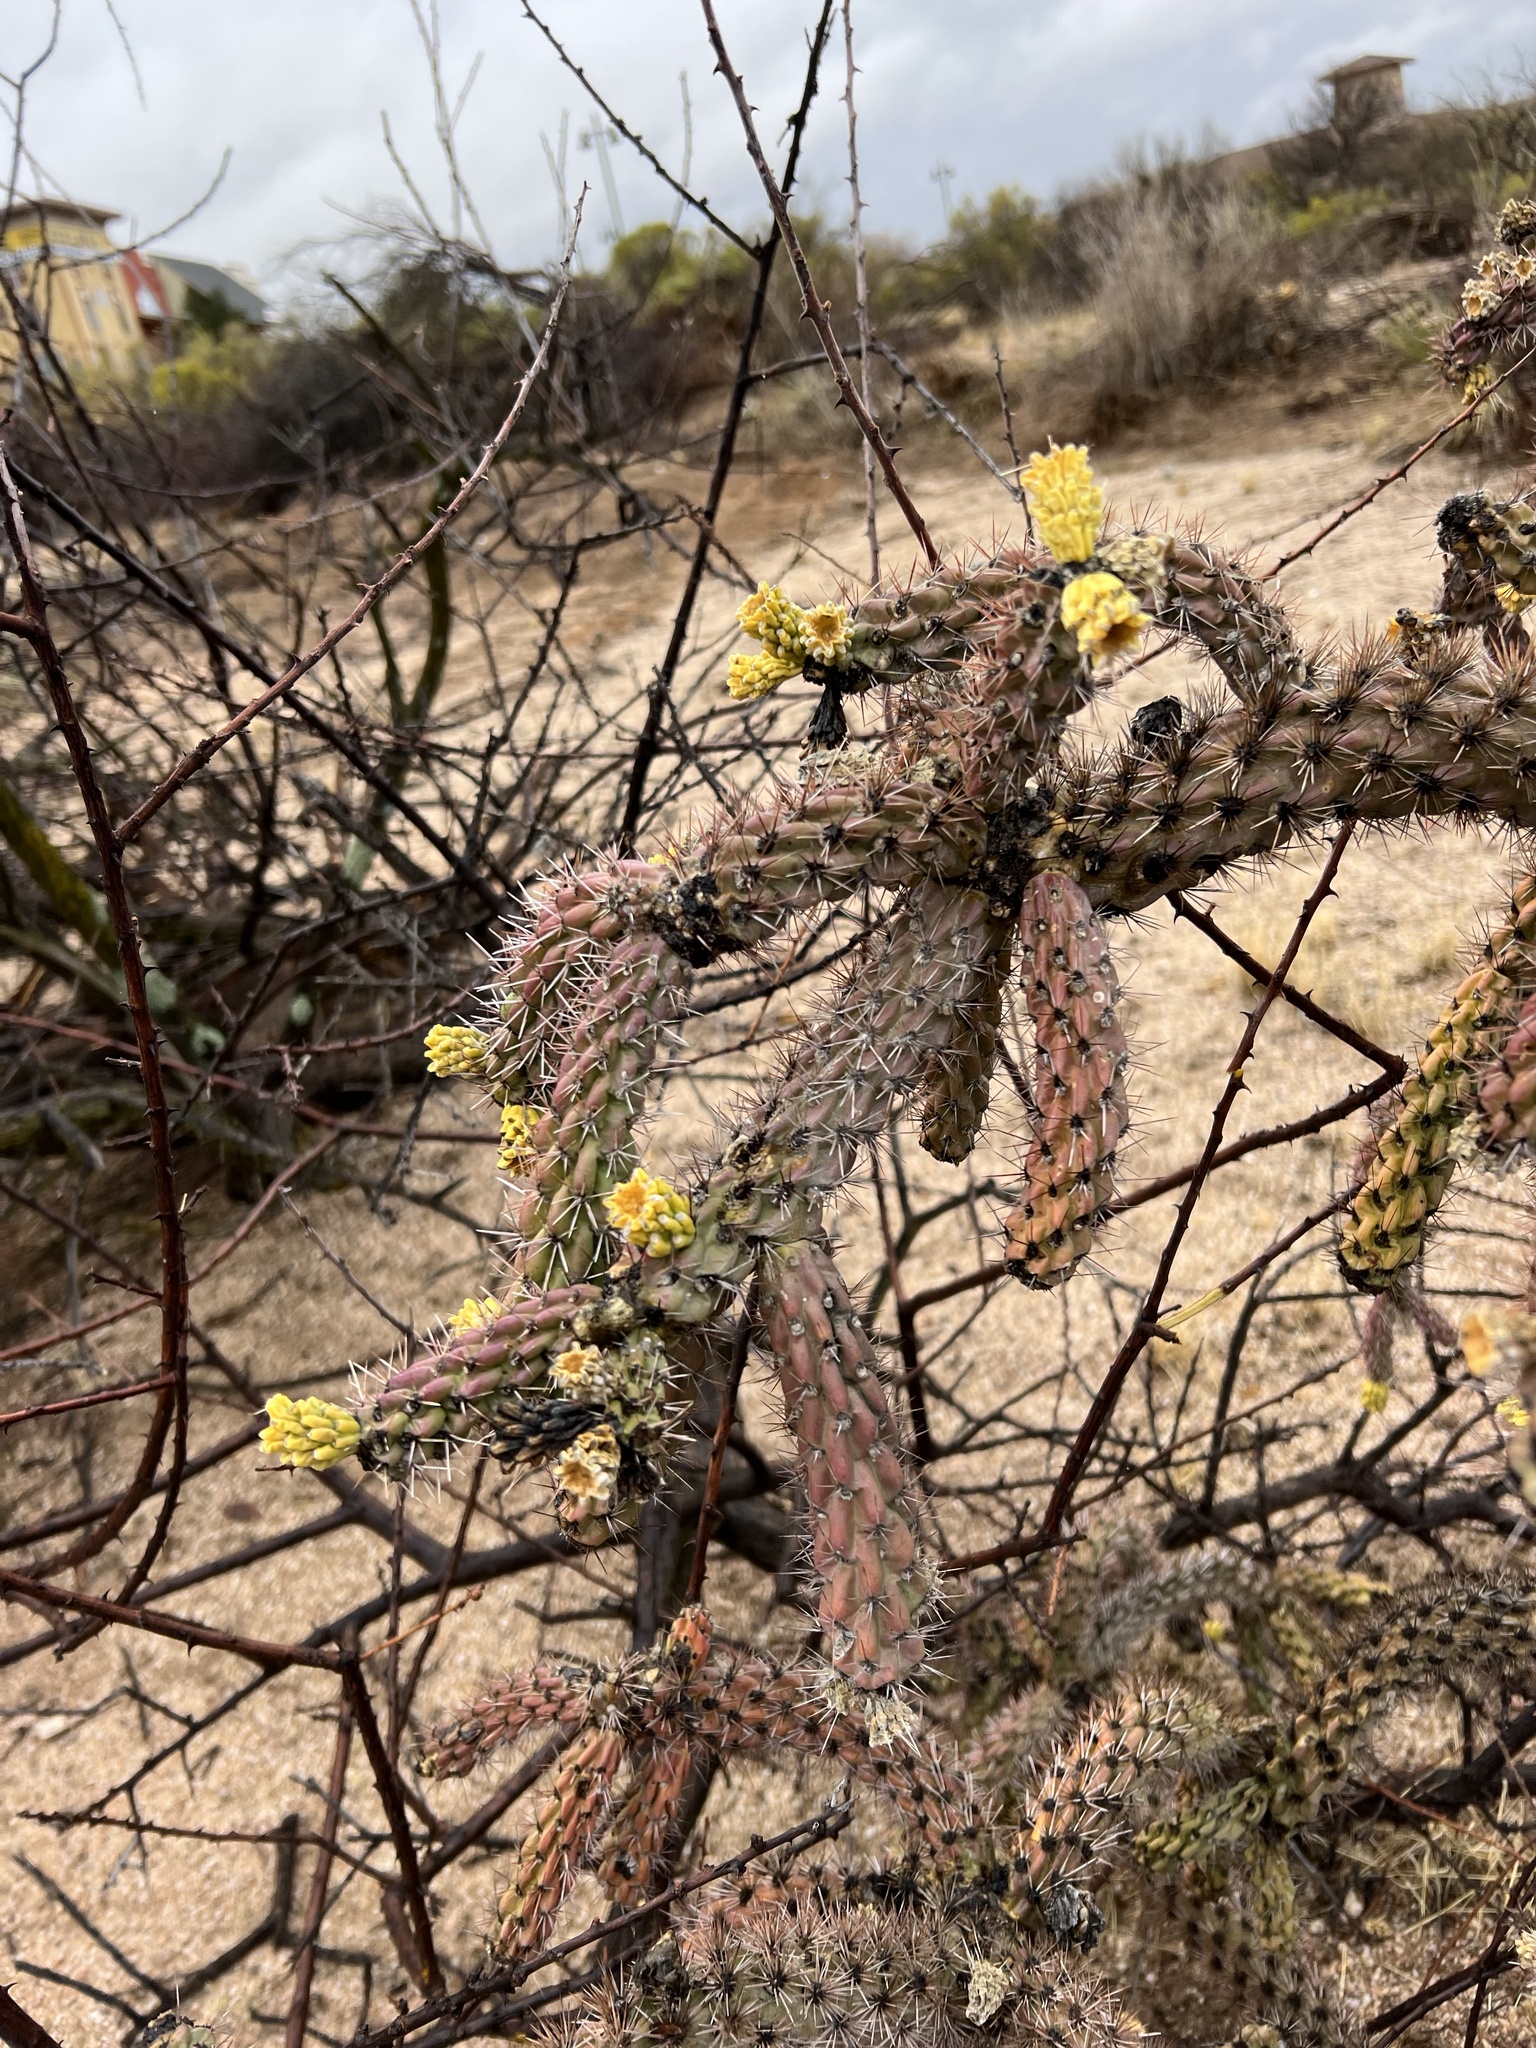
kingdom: Plantae
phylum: Tracheophyta
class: Magnoliopsida
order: Caryophyllales
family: Cactaceae
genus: Cylindropuntia
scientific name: Cylindropuntia imbricata
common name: Candelabrum cactus
